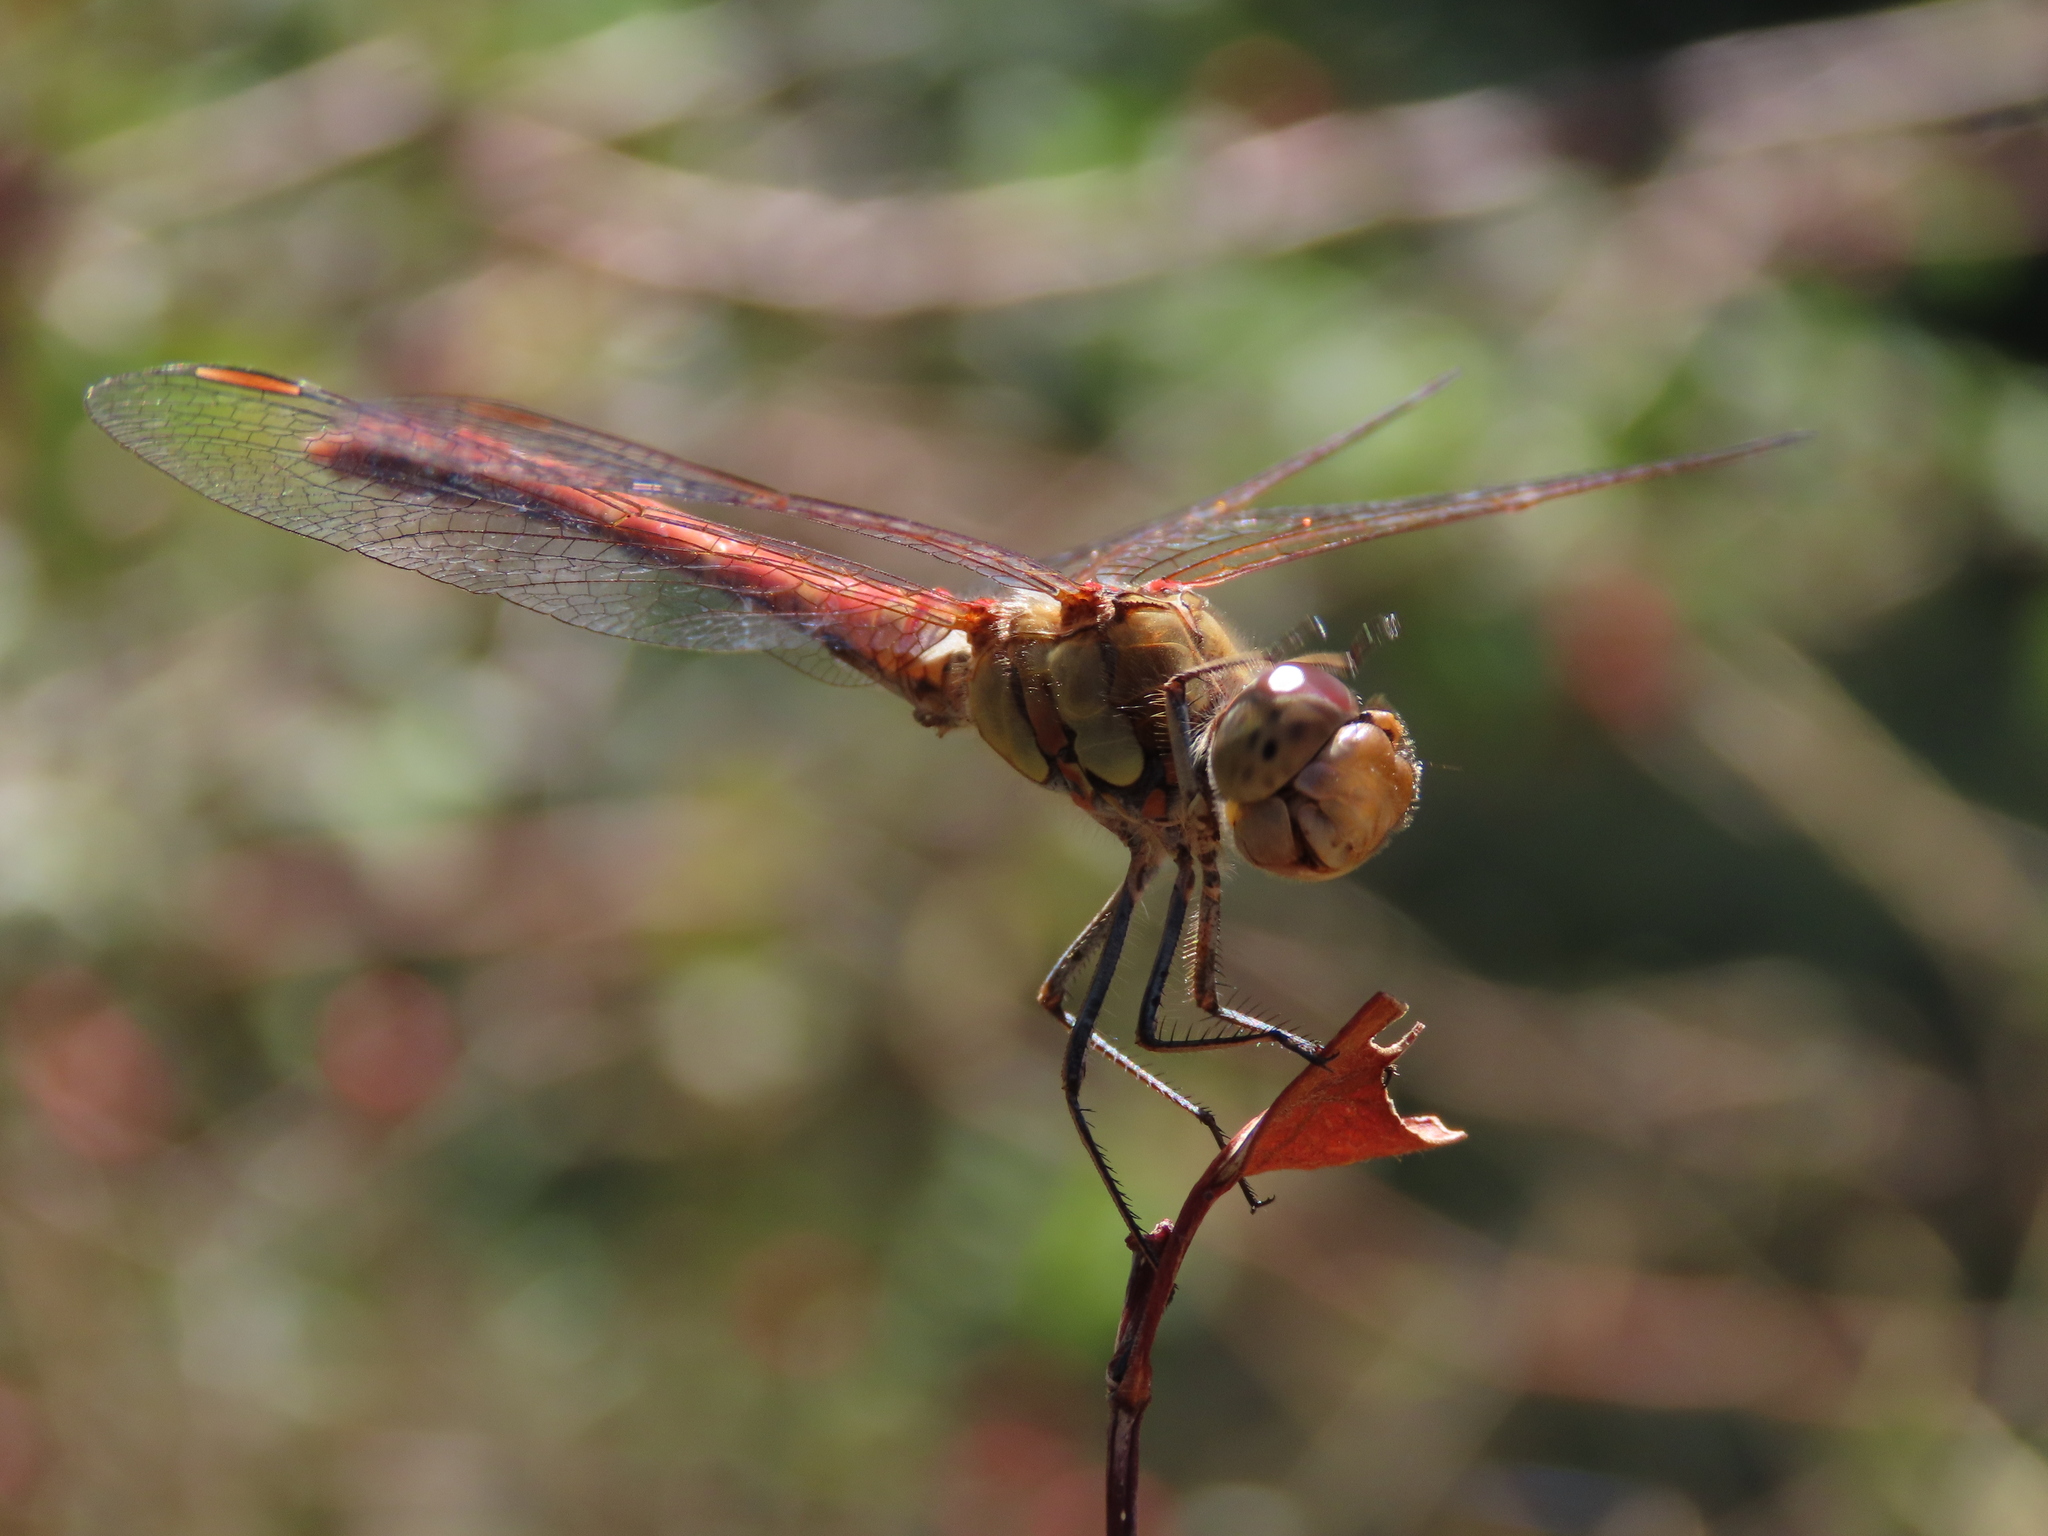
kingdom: Animalia
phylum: Arthropoda
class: Insecta
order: Odonata
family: Libellulidae
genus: Sympetrum
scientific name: Sympetrum striolatum
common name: Common darter
